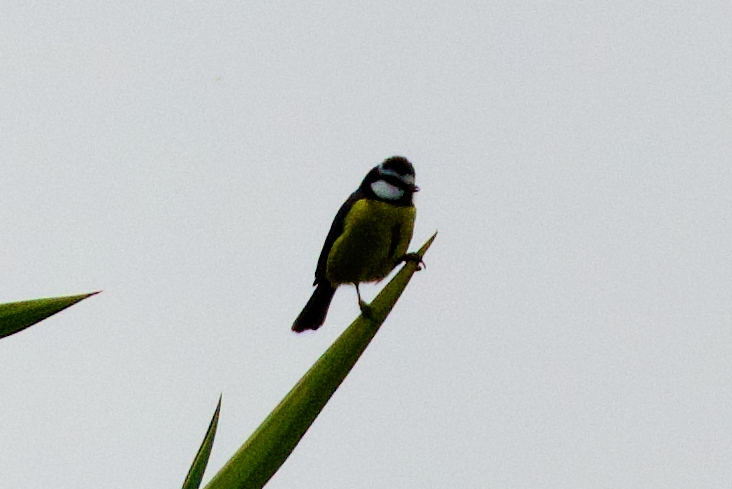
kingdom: Animalia
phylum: Chordata
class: Aves
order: Passeriformes
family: Paridae
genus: Cyanistes
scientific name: Cyanistes teneriffae
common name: African blue tit
